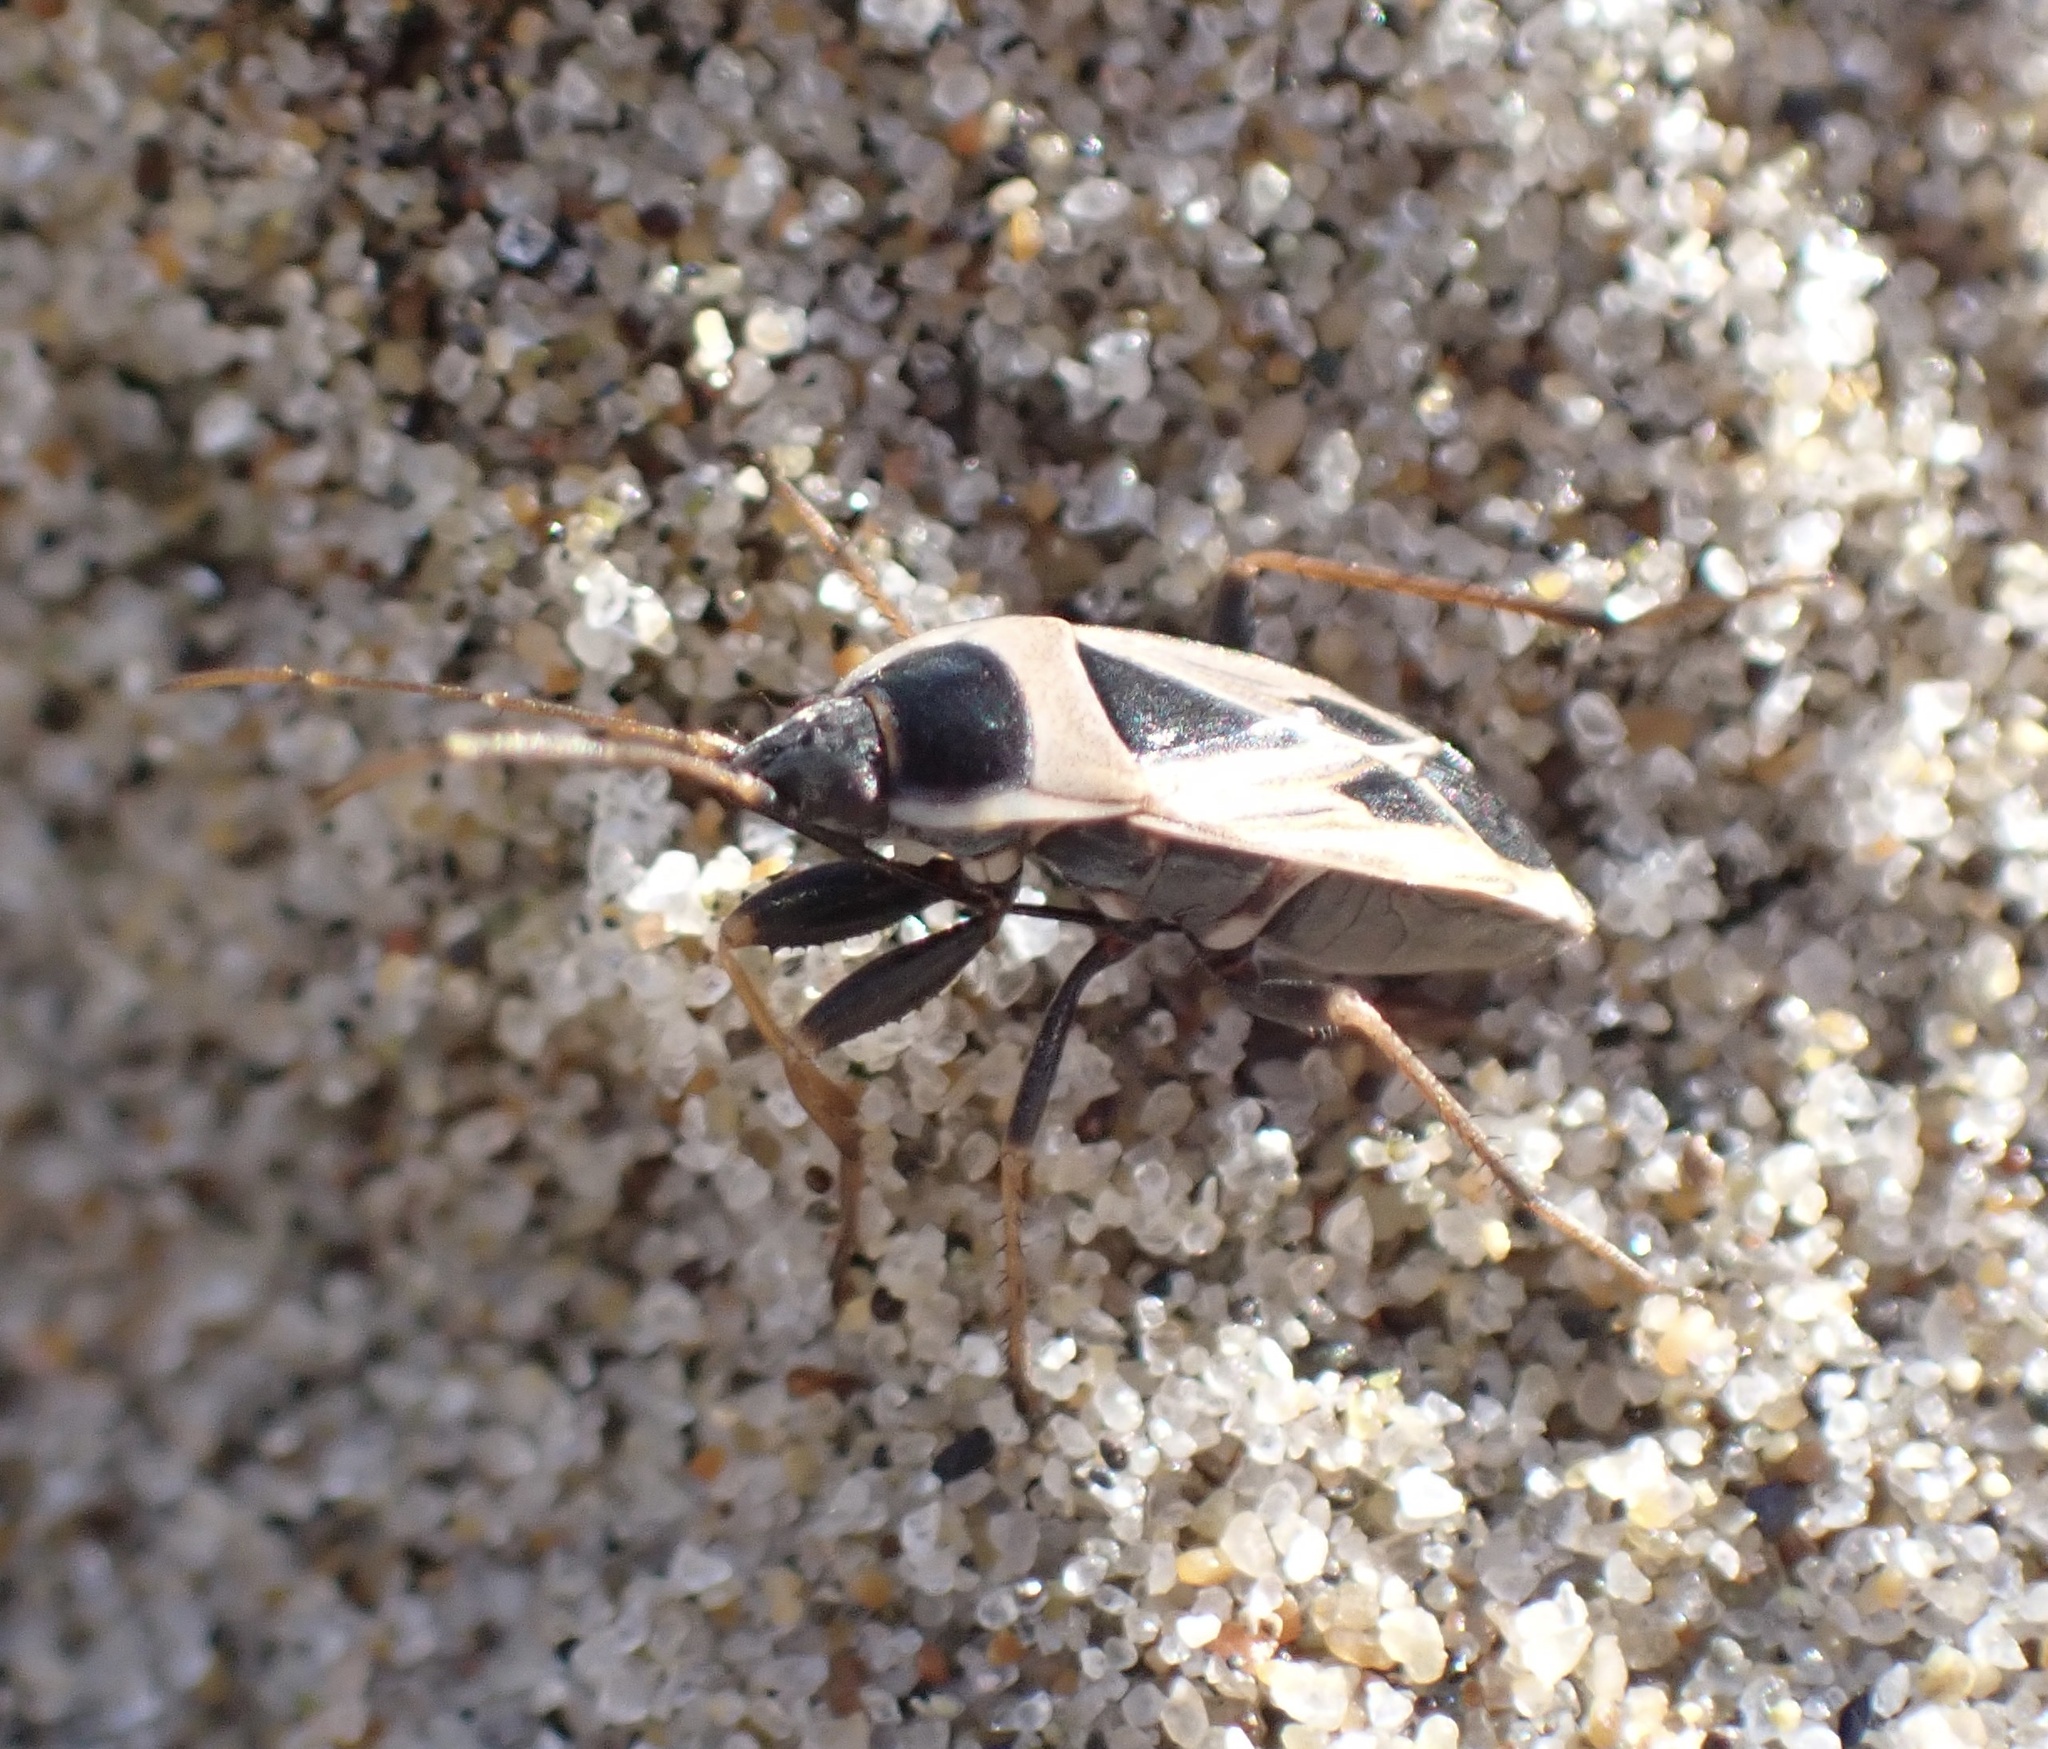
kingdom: Animalia
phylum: Arthropoda
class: Insecta
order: Hemiptera
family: Rhyparochromidae
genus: Xanthochilus
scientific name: Xanthochilus saturnius
